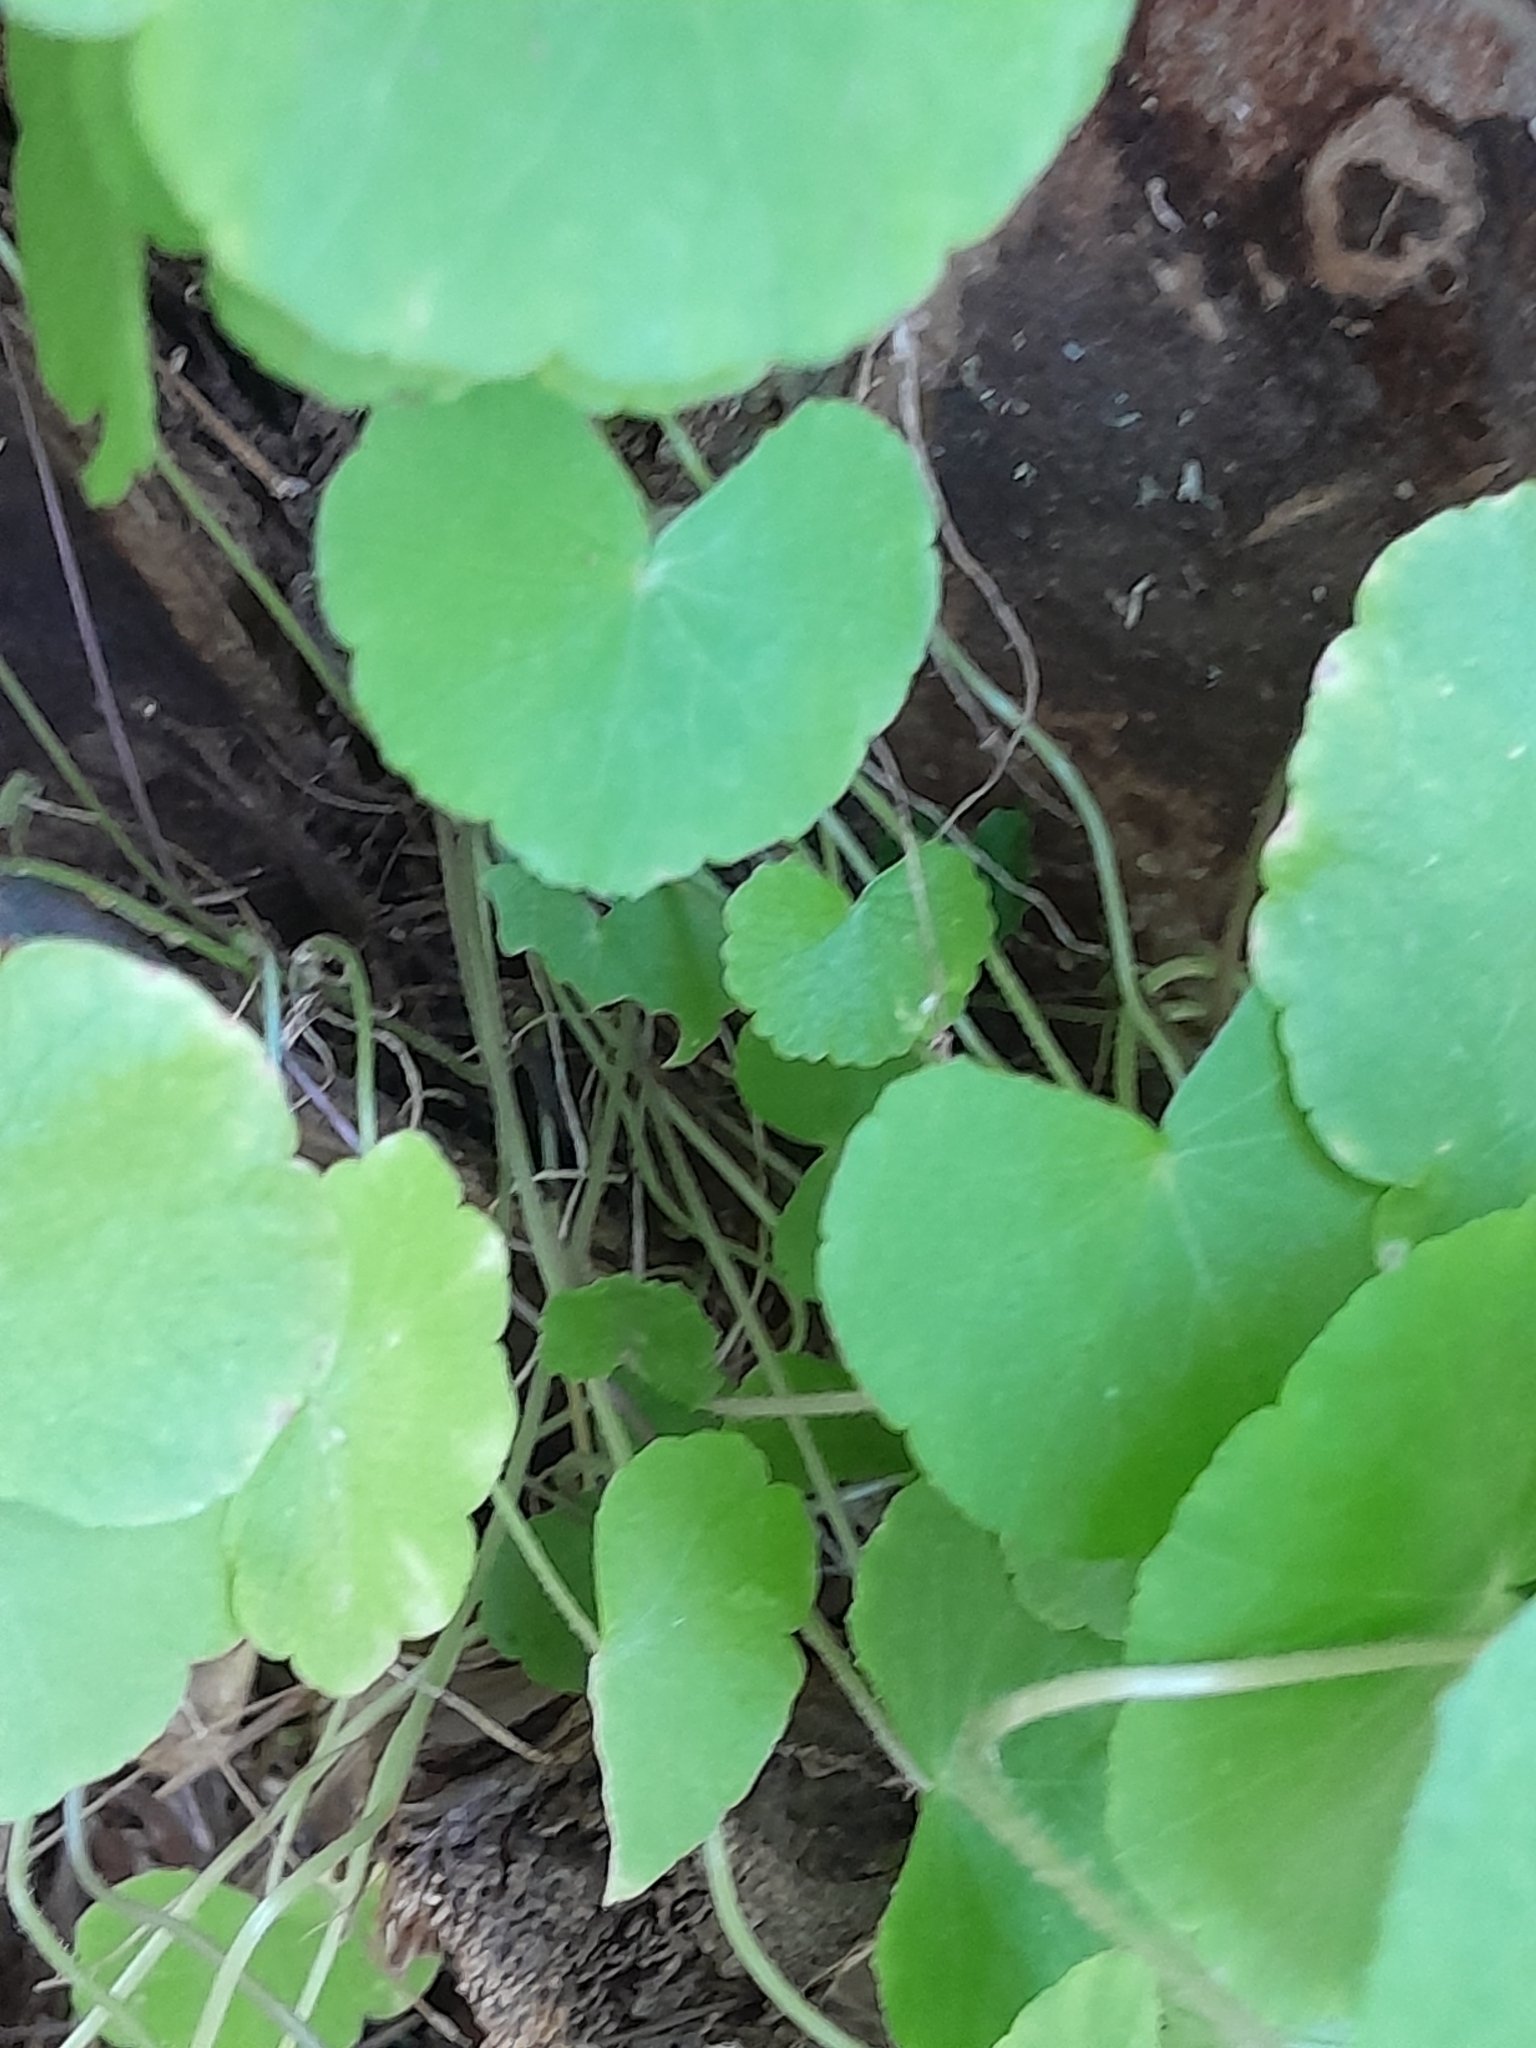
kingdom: Plantae
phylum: Tracheophyta
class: Magnoliopsida
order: Apiales
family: Araliaceae
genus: Hydrocotyle
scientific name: Hydrocotyle leucocephala
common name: Brazilian pennywort
